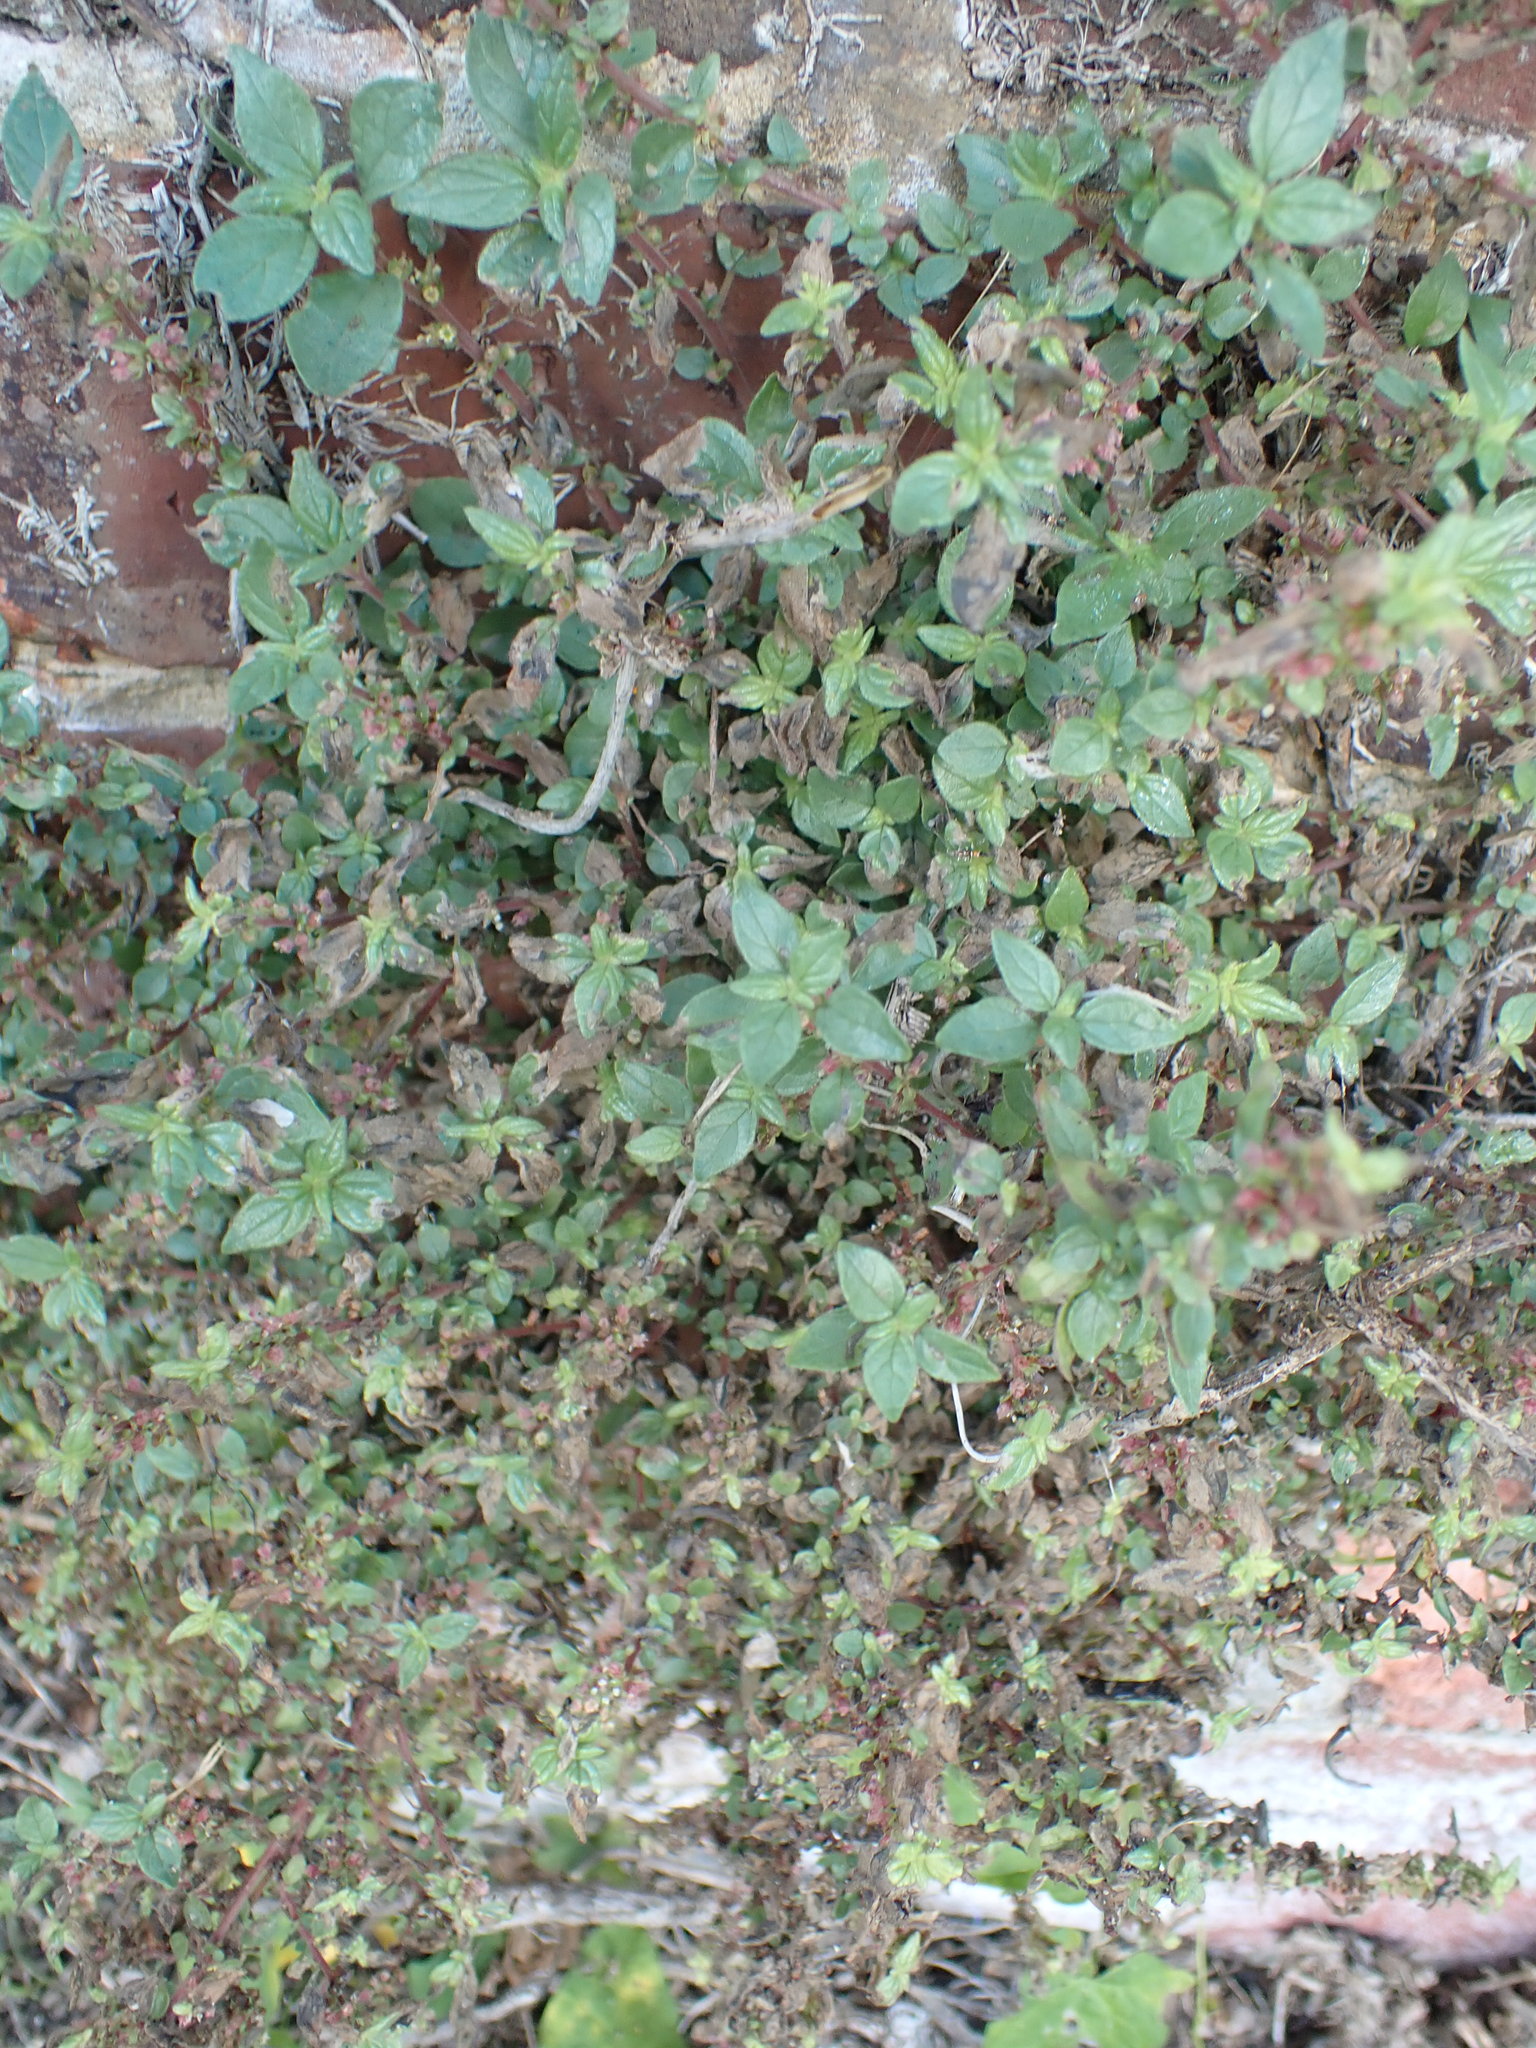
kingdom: Plantae
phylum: Tracheophyta
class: Magnoliopsida
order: Rosales
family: Urticaceae
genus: Parietaria
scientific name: Parietaria judaica
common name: Pellitory-of-the-wall
